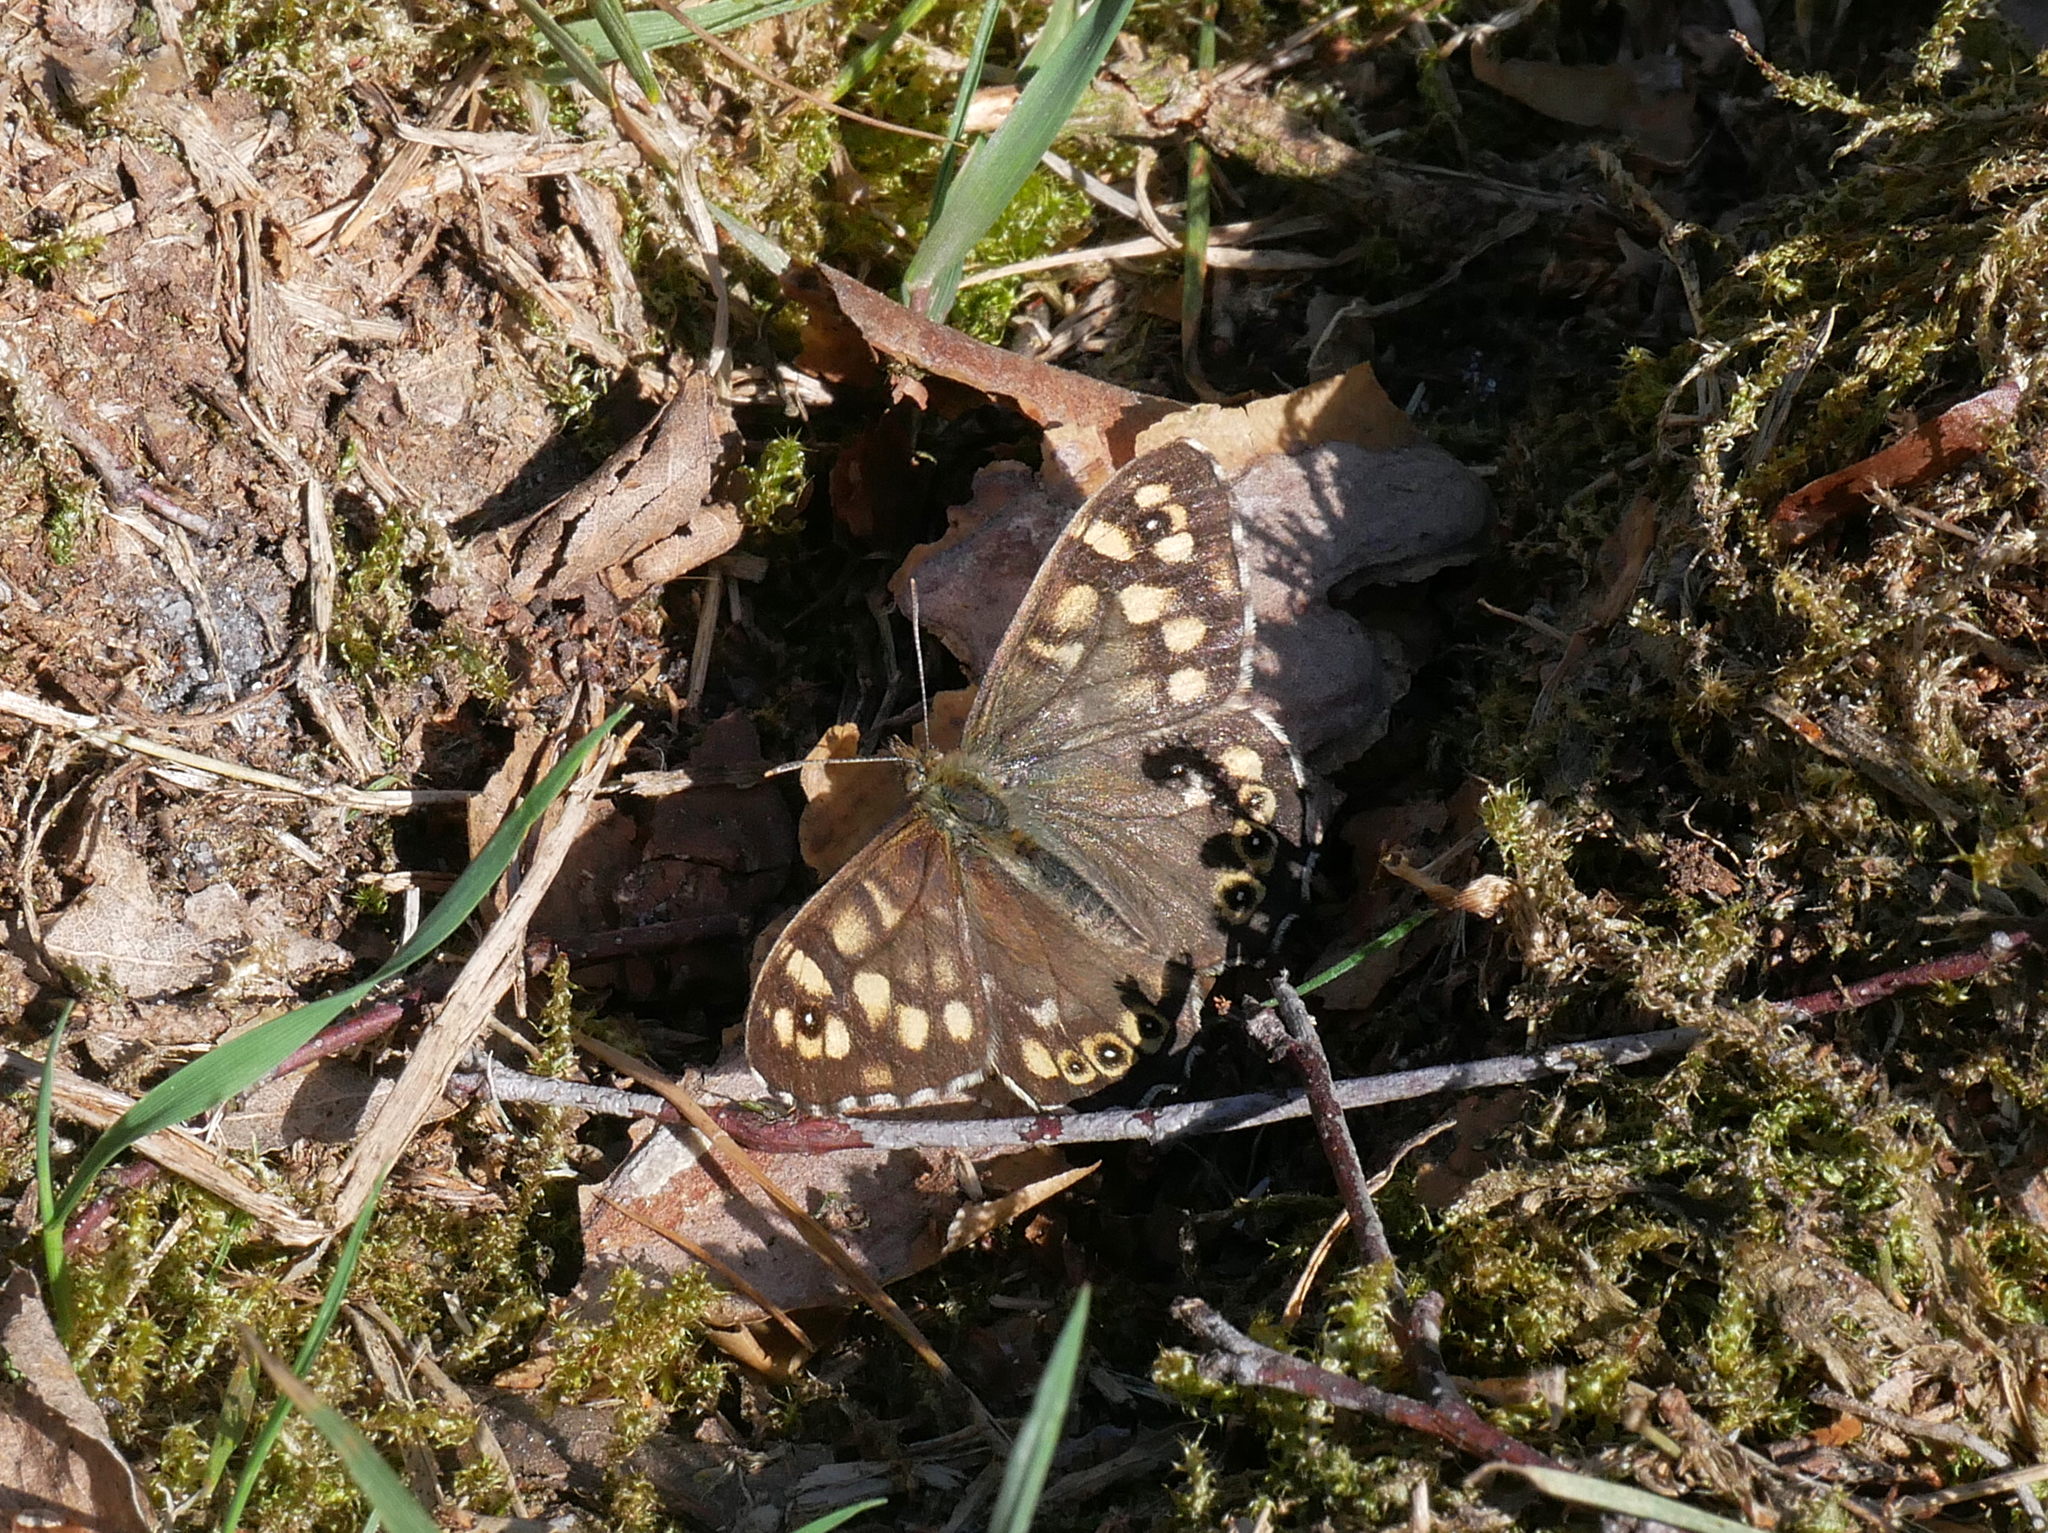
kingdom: Animalia
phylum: Arthropoda
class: Insecta
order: Lepidoptera
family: Nymphalidae
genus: Pararge
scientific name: Pararge aegeria
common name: Speckled wood
